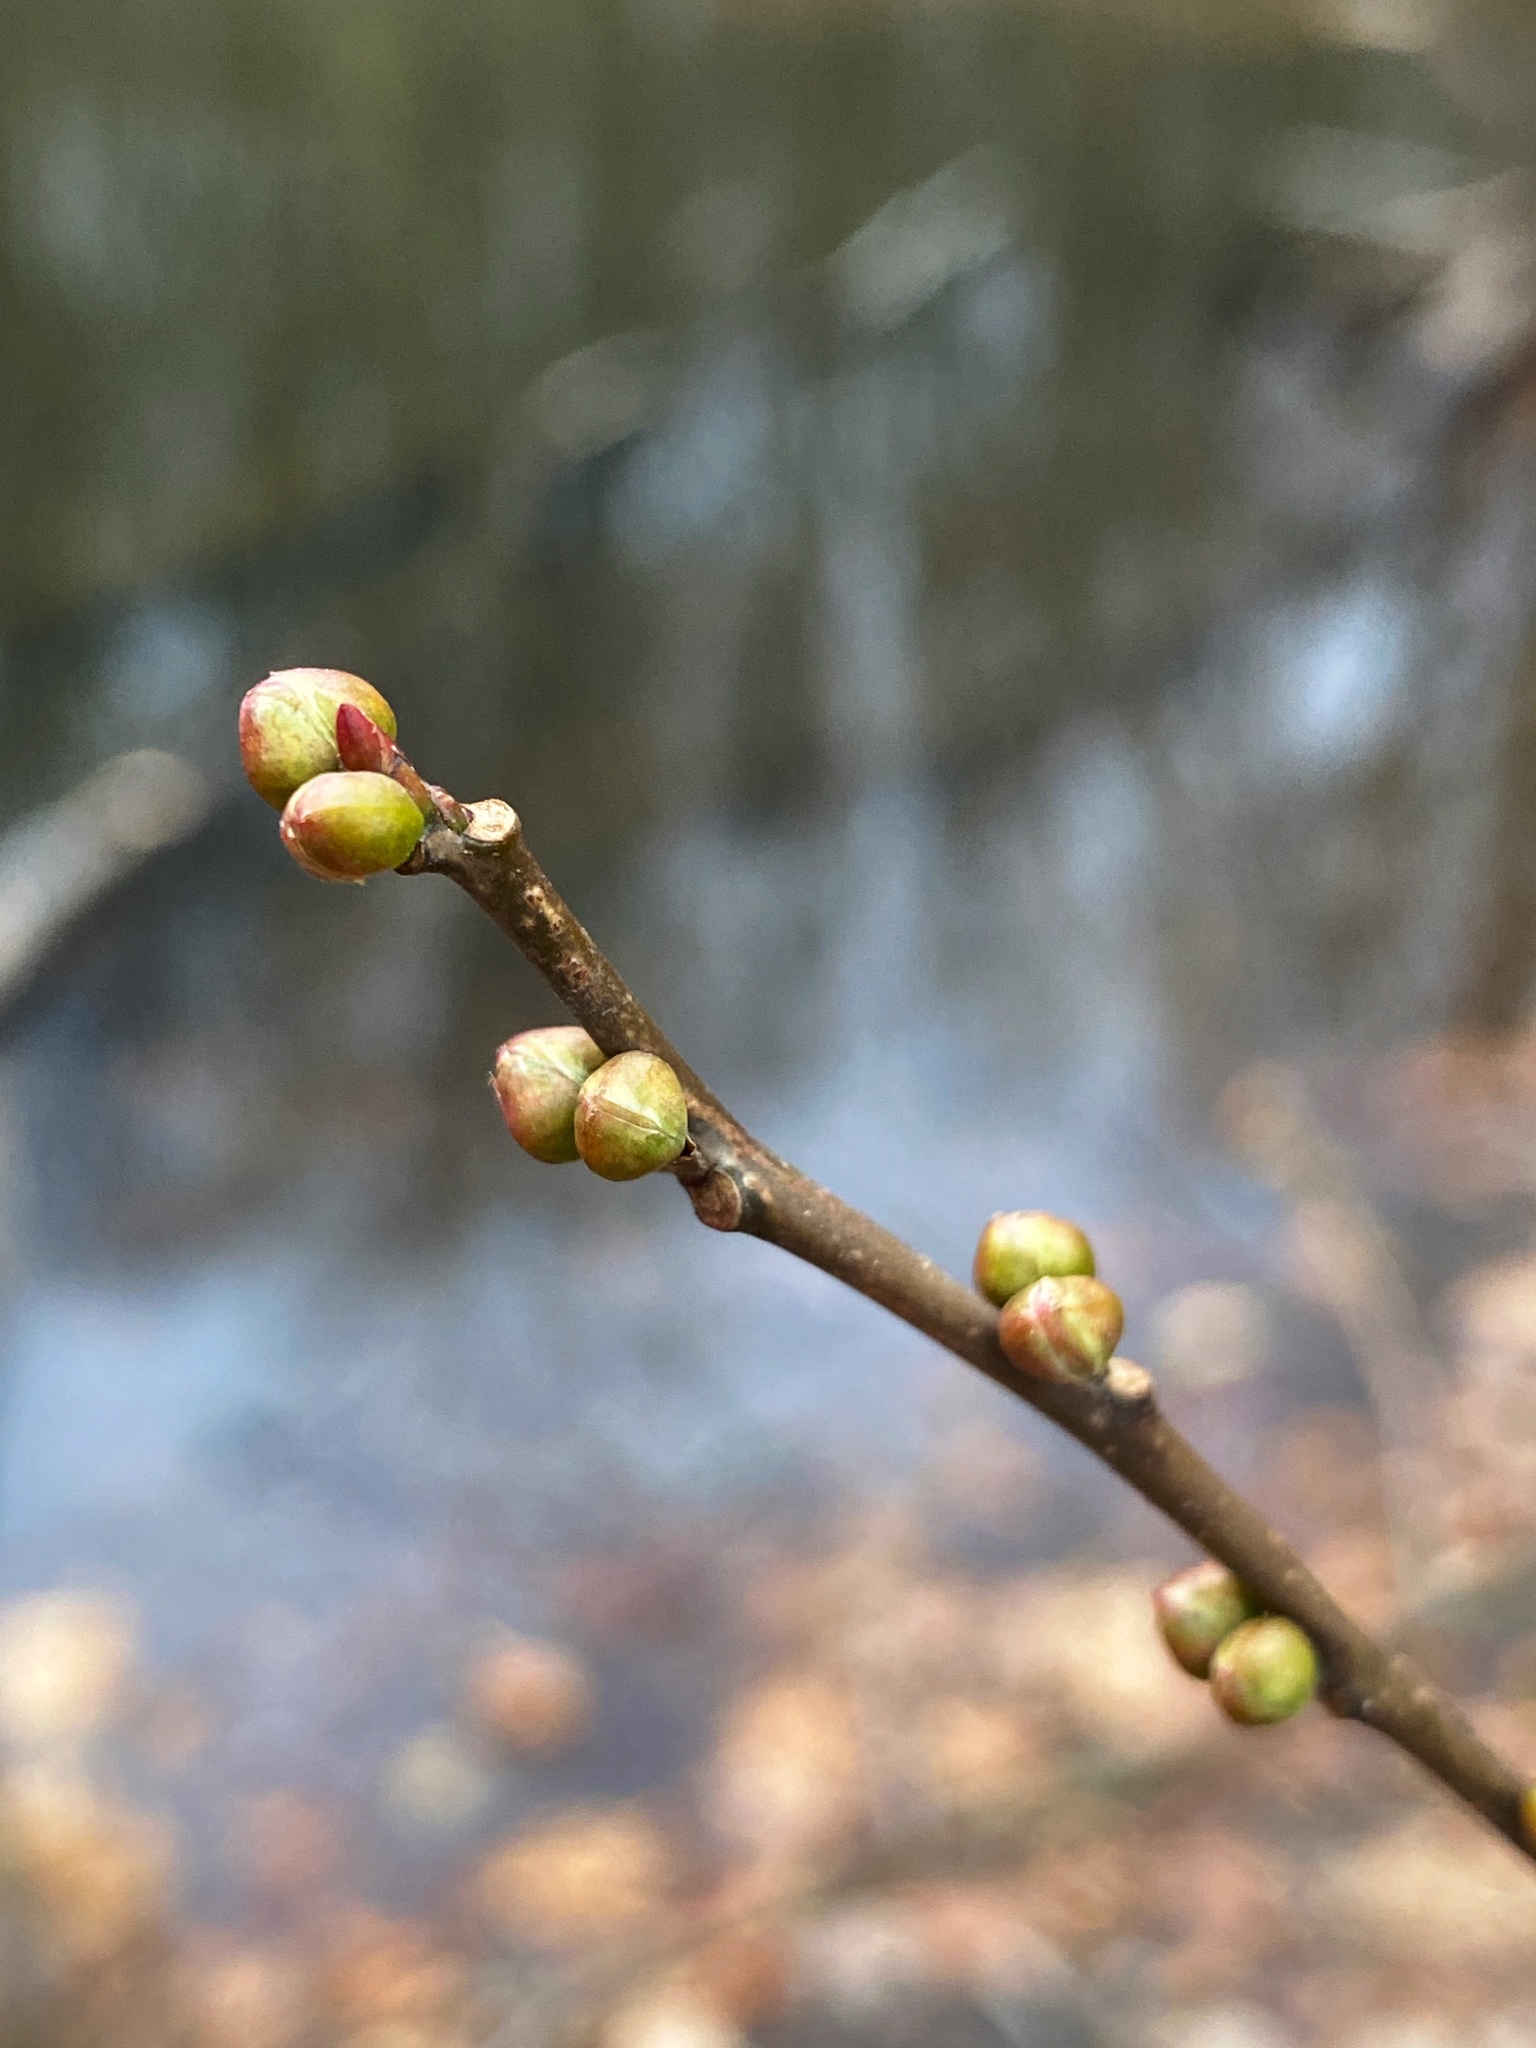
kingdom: Plantae
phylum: Tracheophyta
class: Magnoliopsida
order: Laurales
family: Lauraceae
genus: Lindera
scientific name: Lindera benzoin
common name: Spicebush
